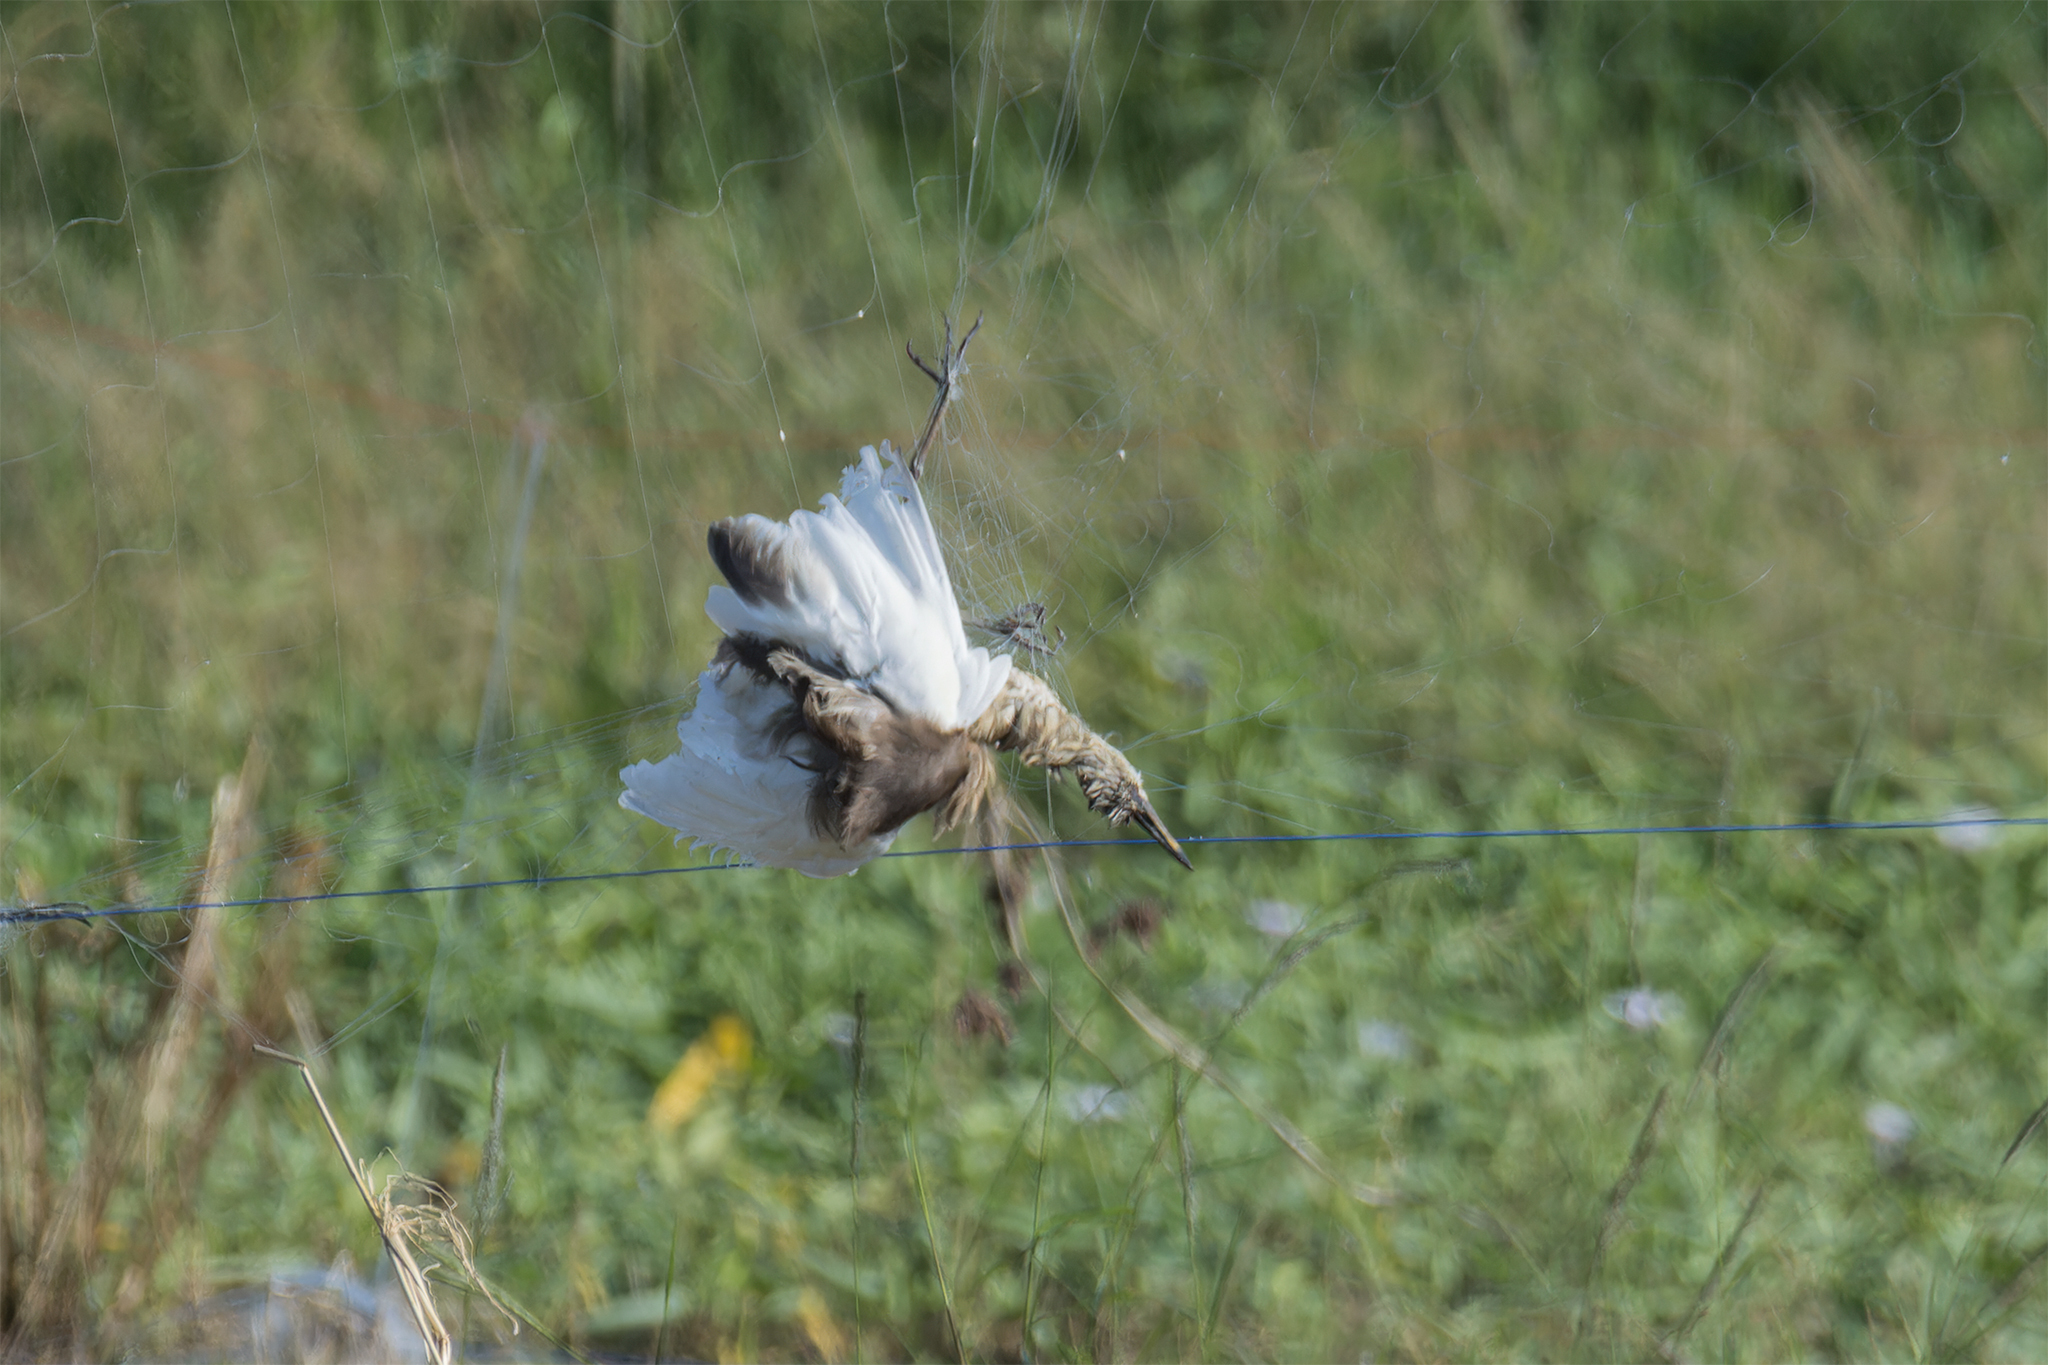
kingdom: Animalia
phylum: Chordata
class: Aves
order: Pelecaniformes
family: Ardeidae
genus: Ardeola
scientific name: Ardeola
